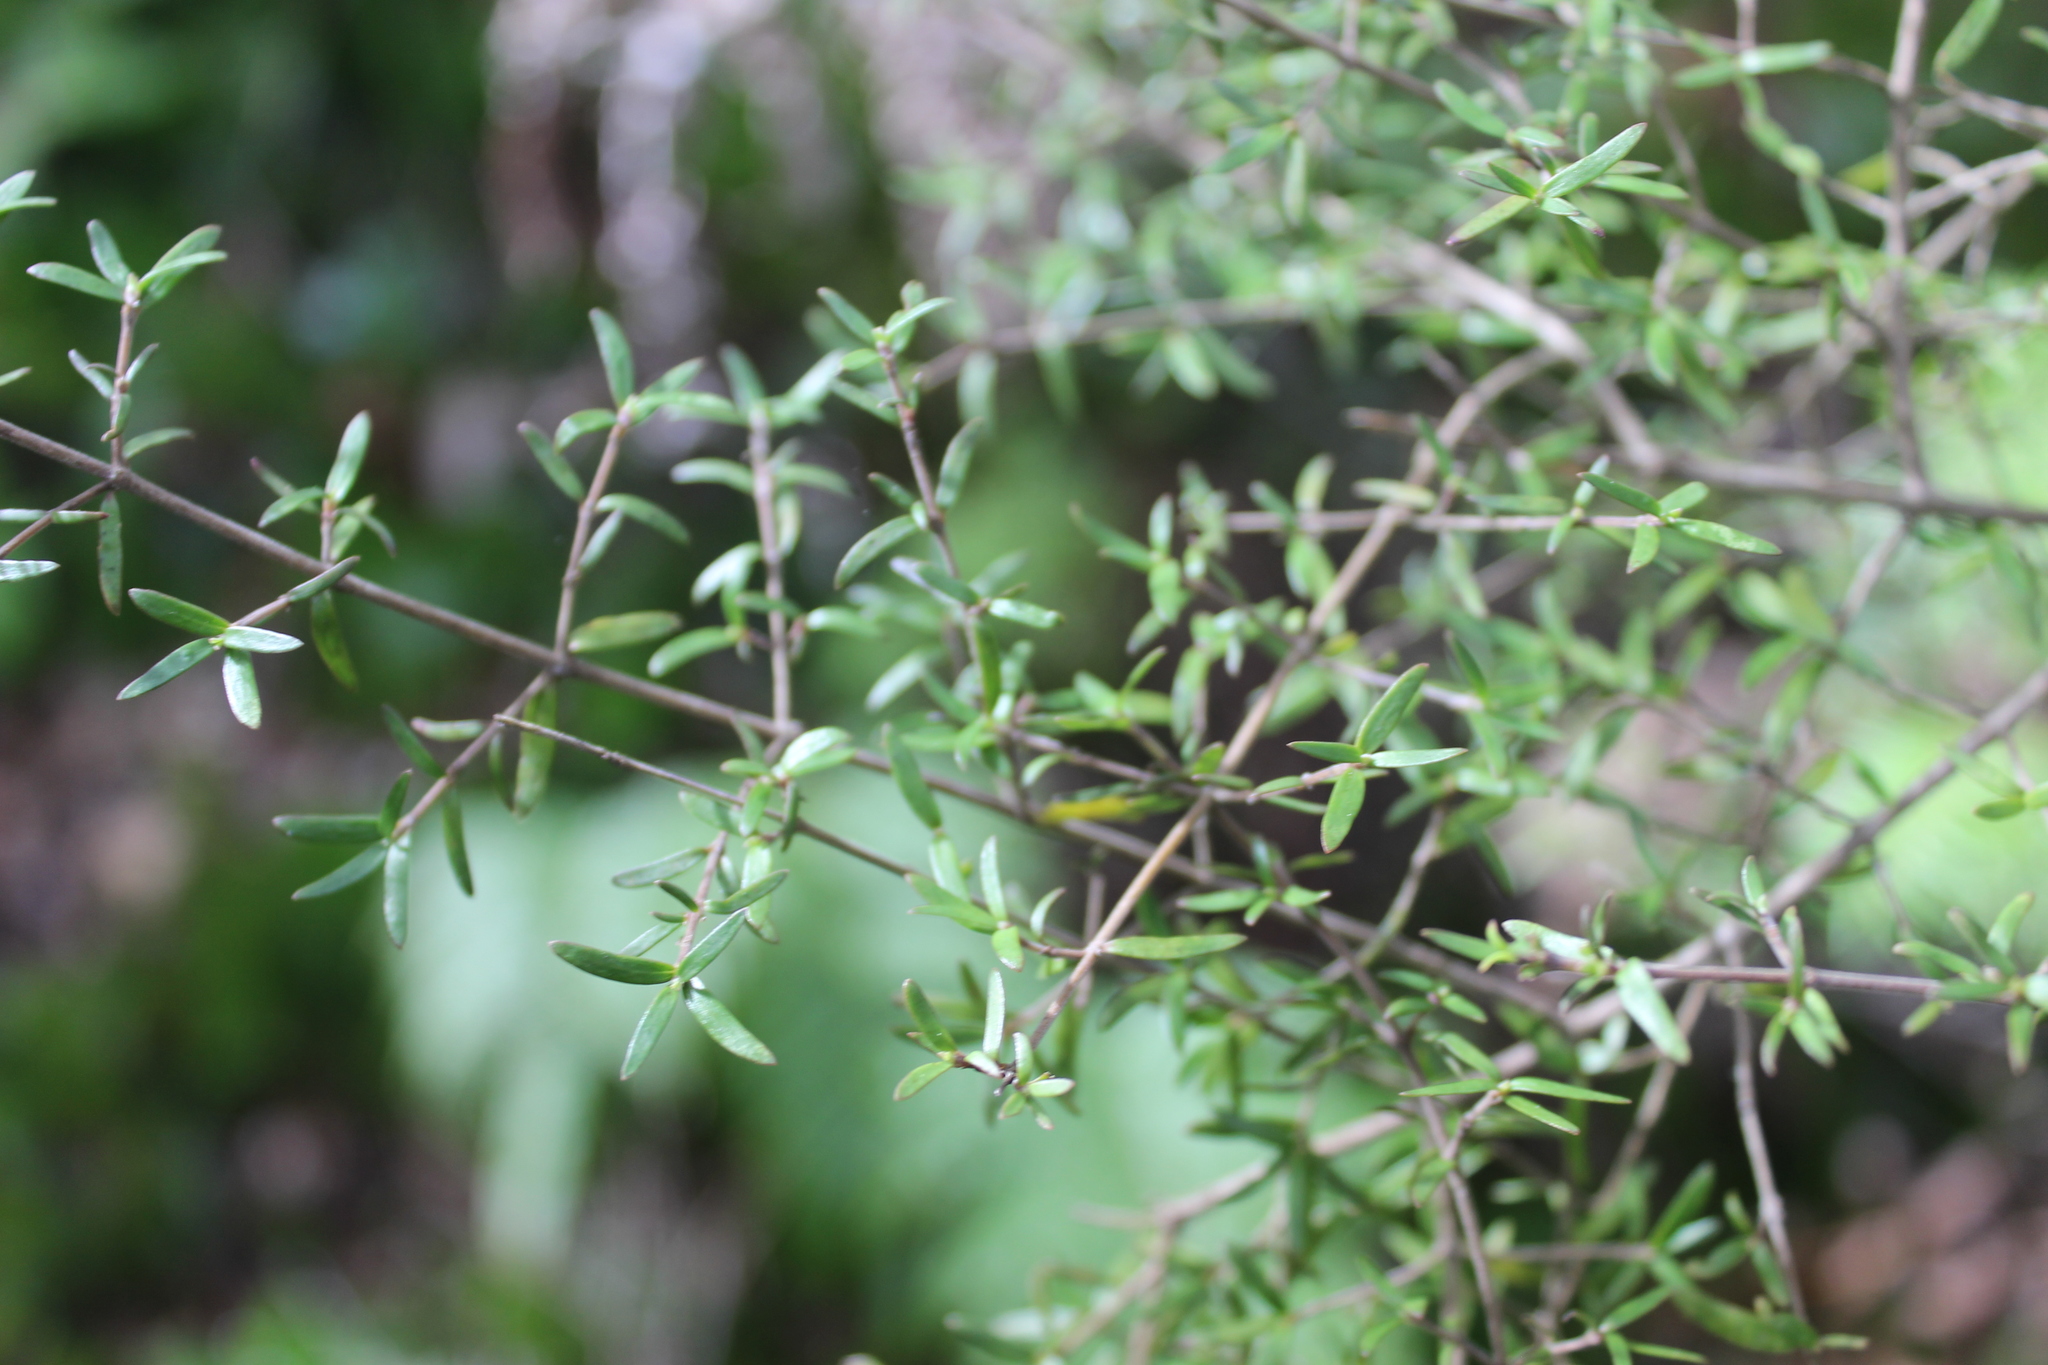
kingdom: Plantae
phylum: Tracheophyta
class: Magnoliopsida
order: Gentianales
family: Rubiaceae
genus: Coprosma
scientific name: Coprosma microcarpa
